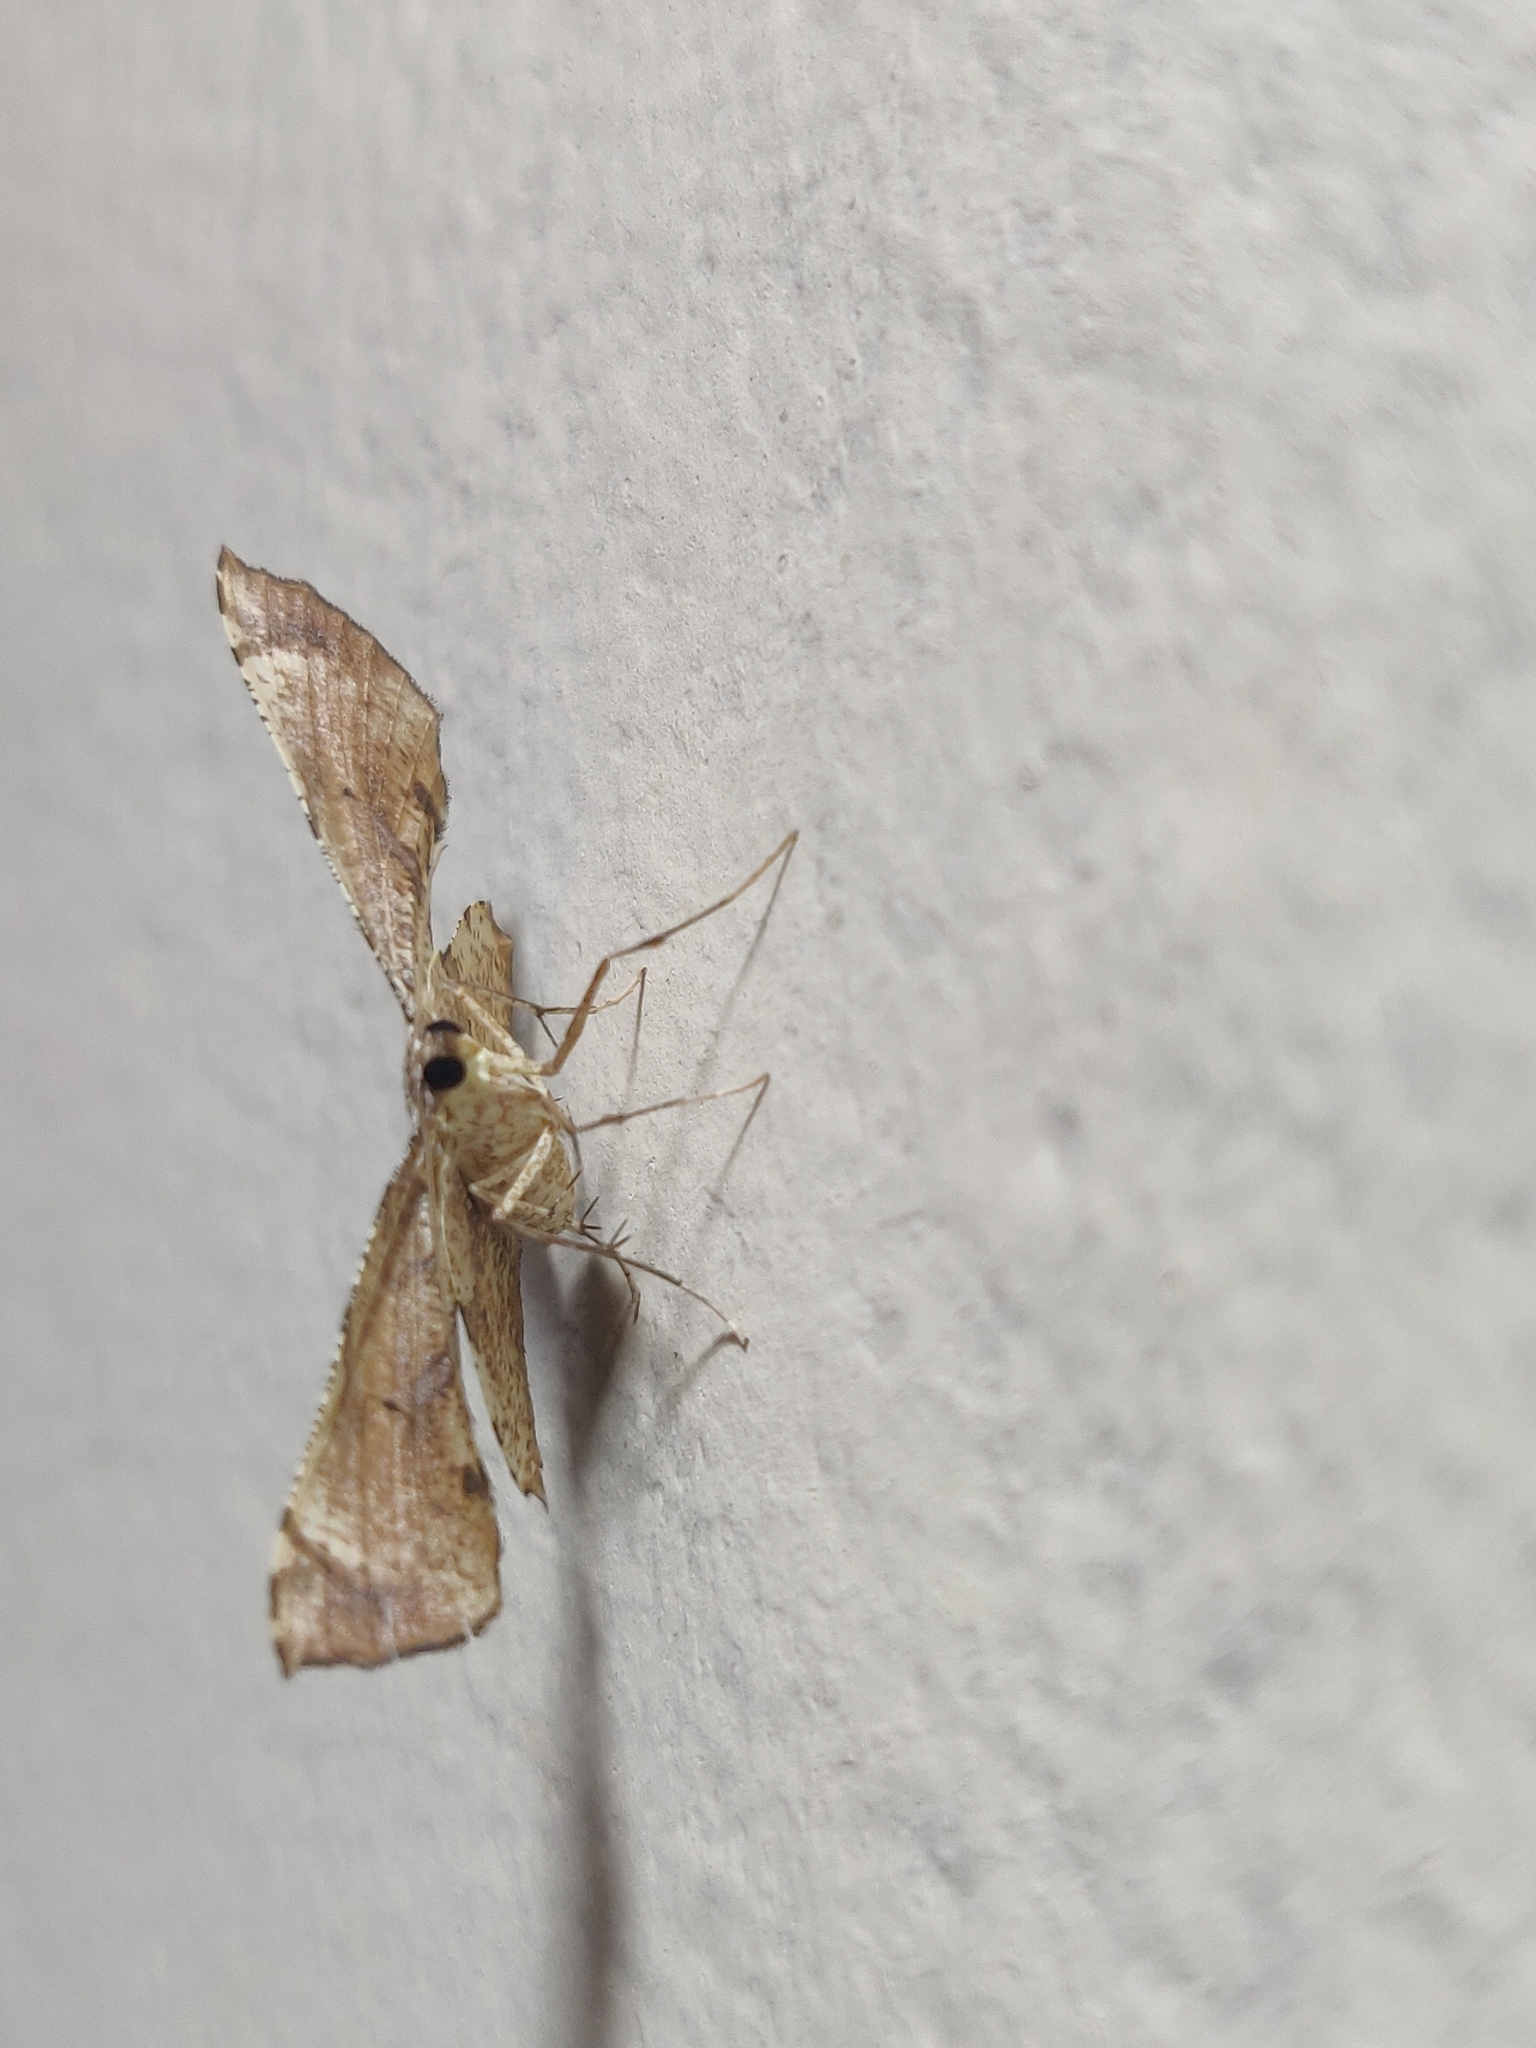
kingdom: Animalia
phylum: Arthropoda
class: Insecta
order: Lepidoptera
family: Geometridae
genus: Corymica
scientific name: Corymica deducta
